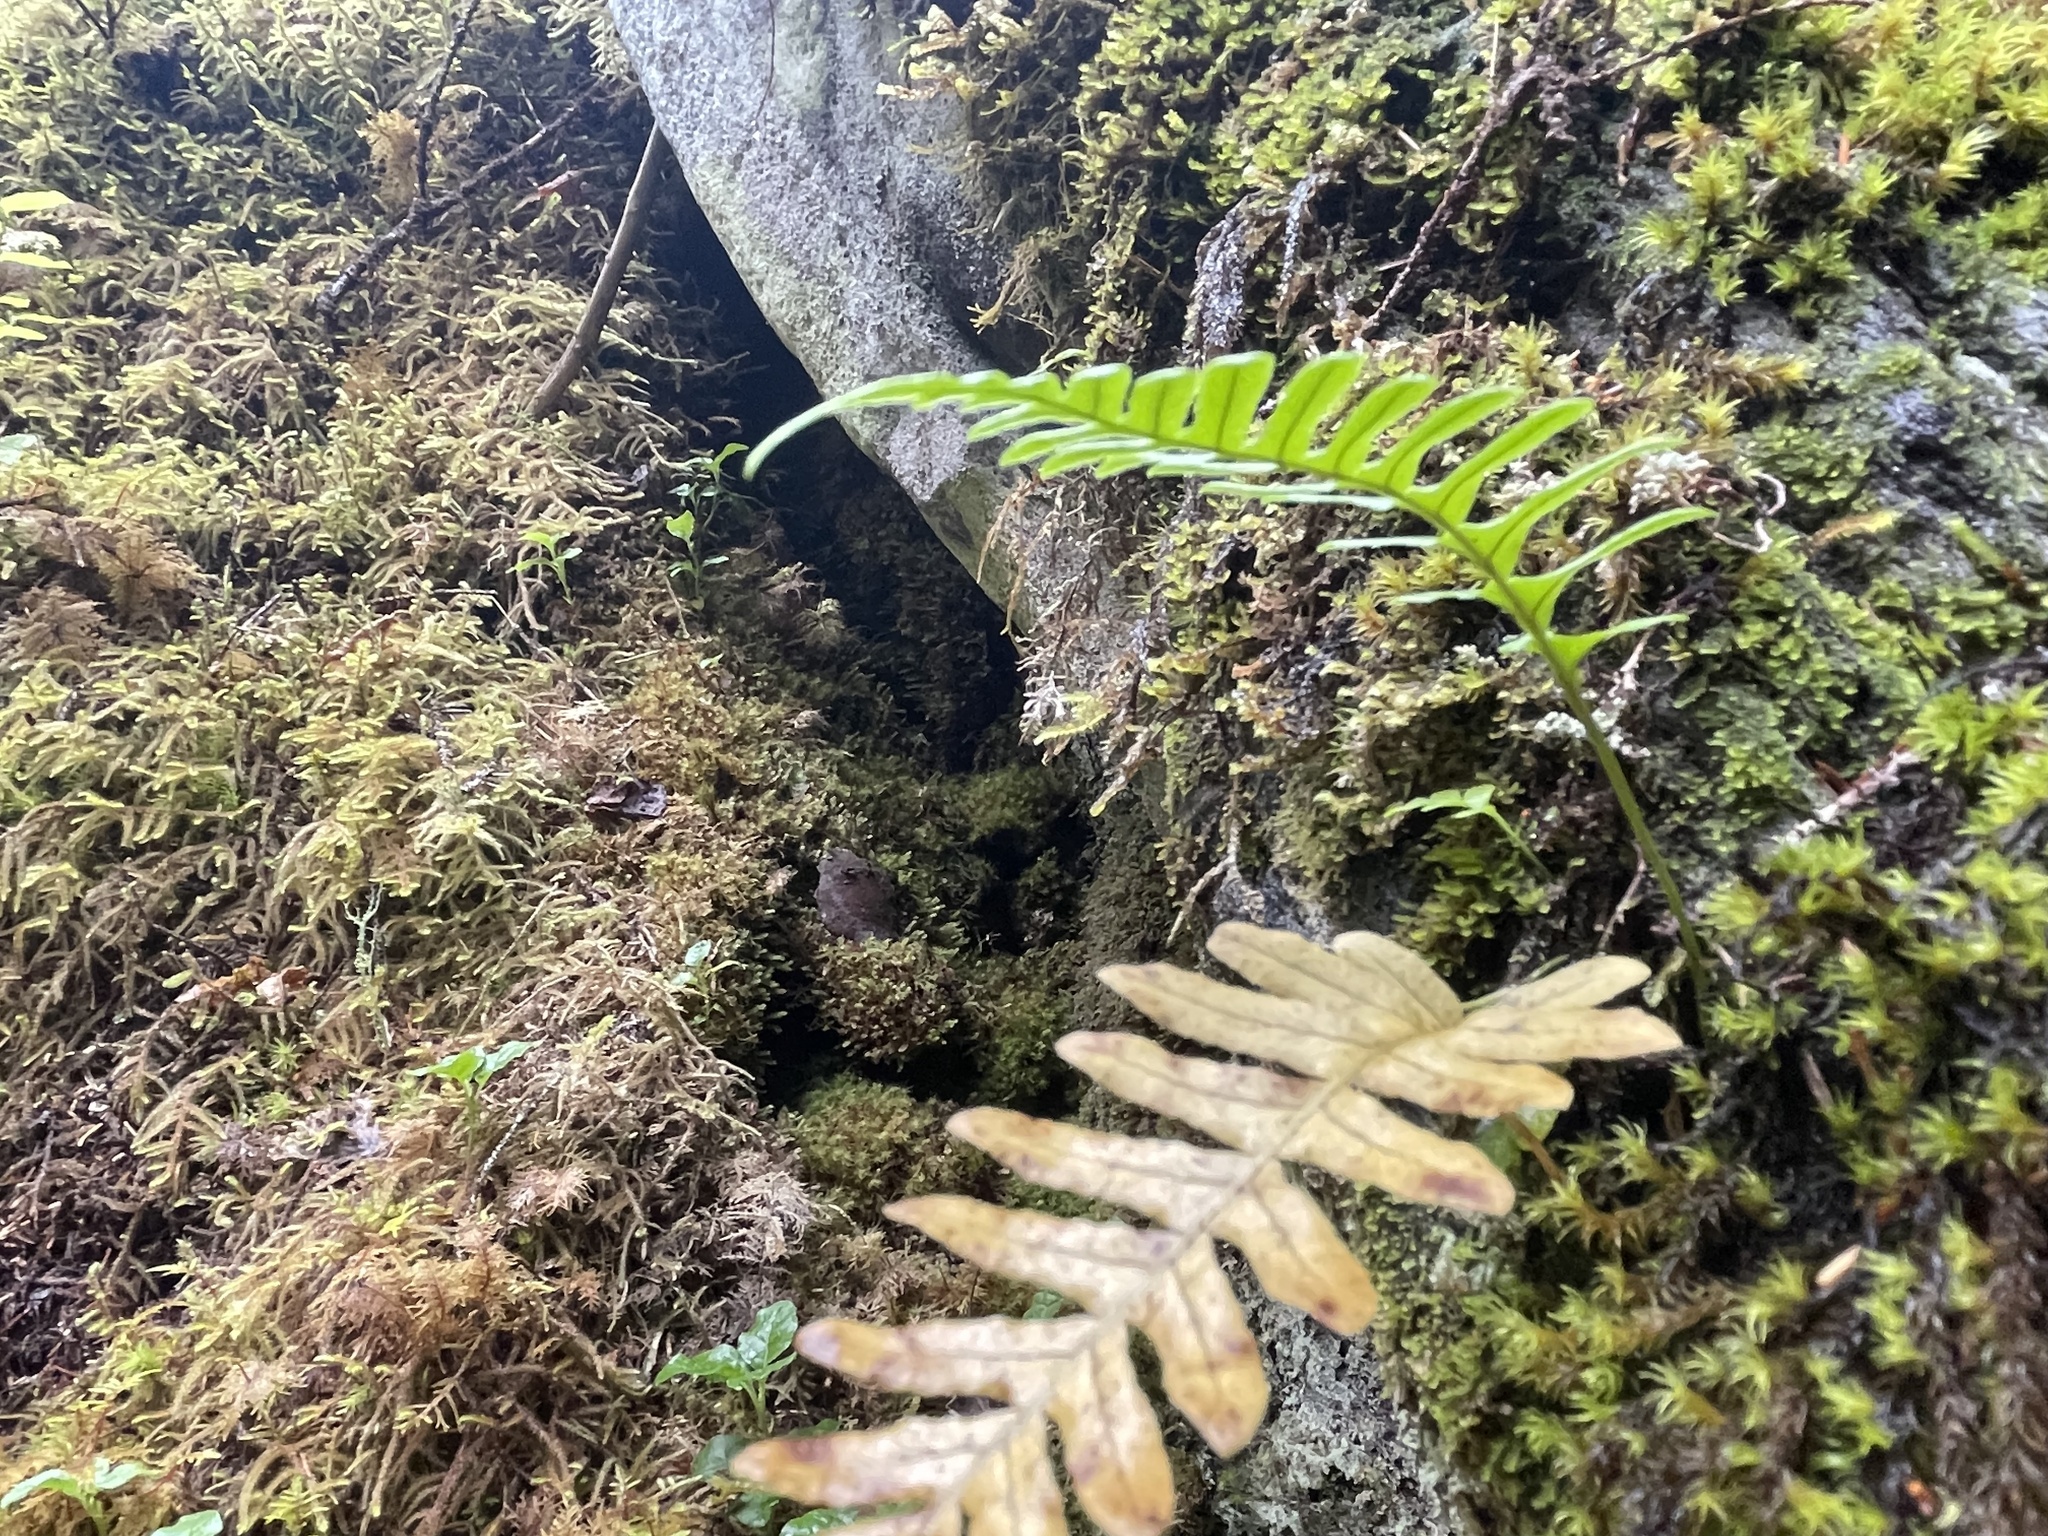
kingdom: Plantae
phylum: Tracheophyta
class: Polypodiopsida
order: Polypodiales
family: Polypodiaceae
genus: Polypodium
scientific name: Polypodium glycyrrhiza
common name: Licorice fern
